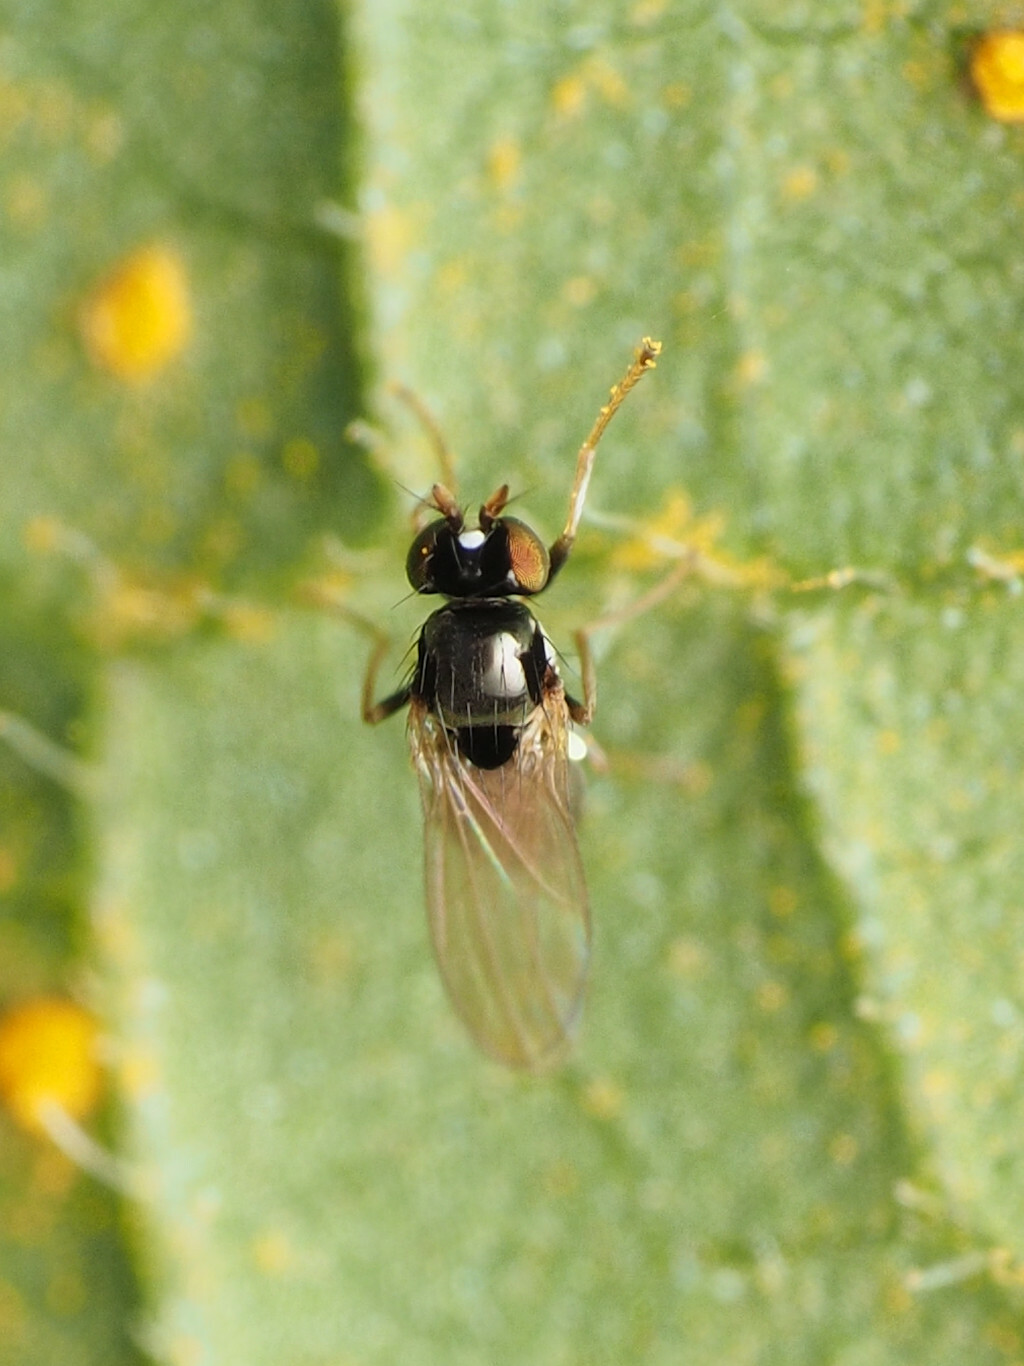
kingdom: Animalia
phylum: Arthropoda
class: Insecta
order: Diptera
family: Ephydridae
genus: Hydrellia
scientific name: Hydrellia formosa
